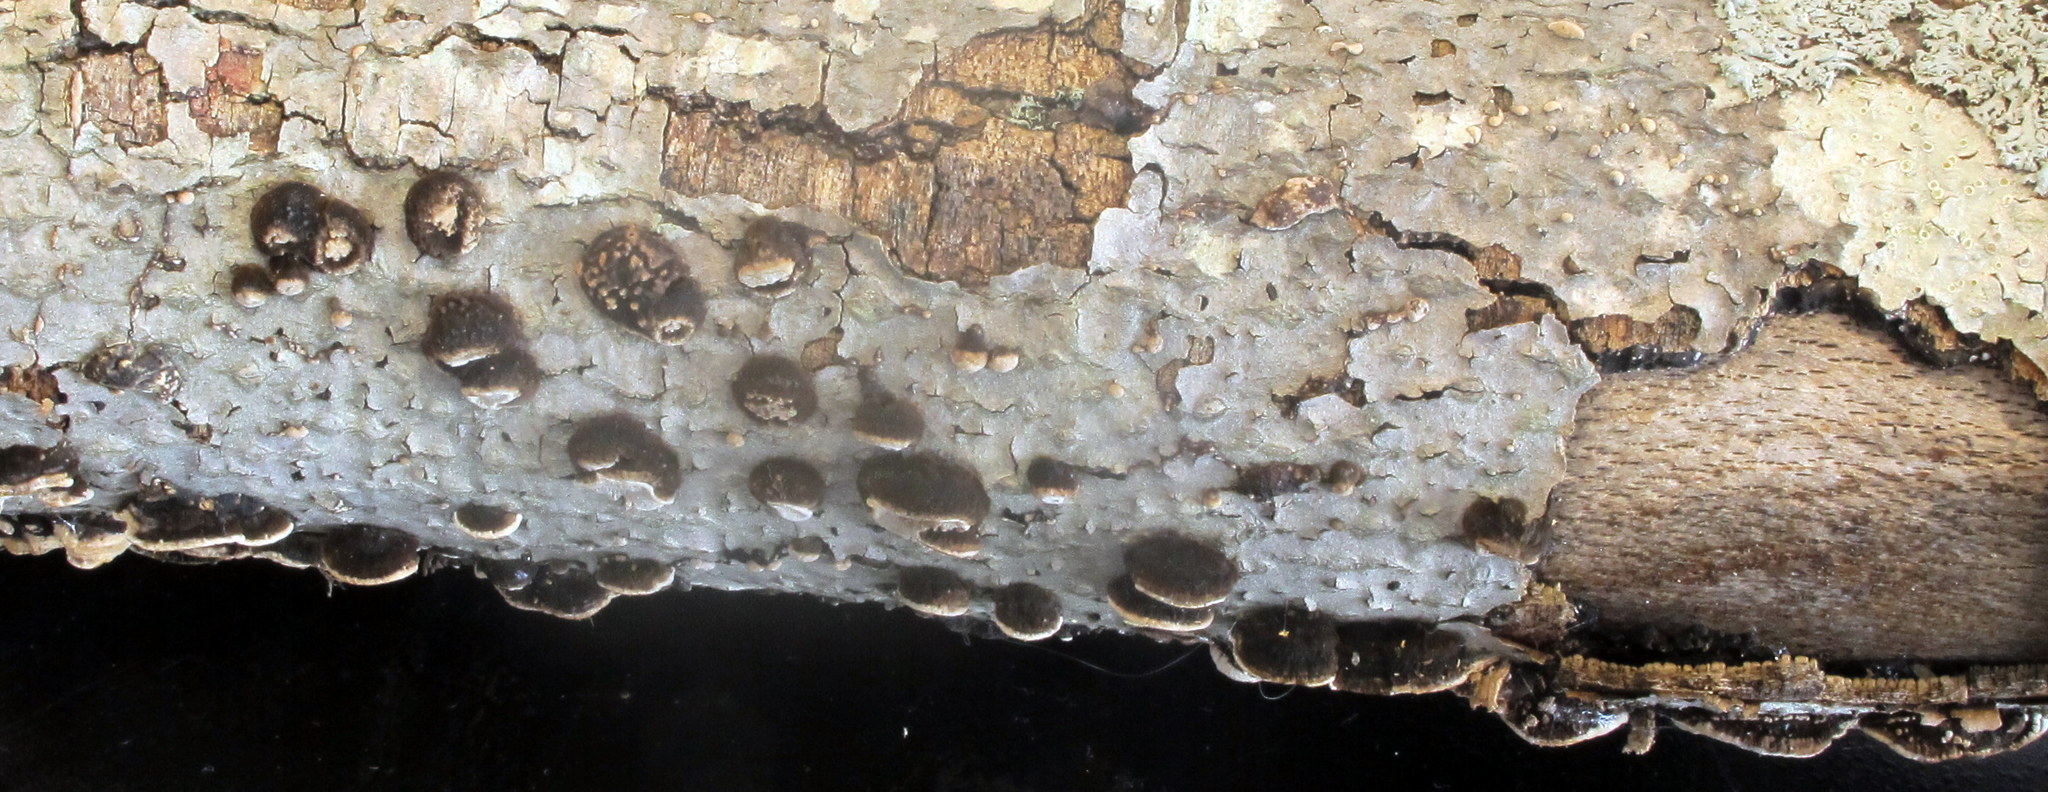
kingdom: Fungi
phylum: Basidiomycota
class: Agaricomycetes
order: Polyporales
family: Polyporaceae
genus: Cerioporus
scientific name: Cerioporus scutellatus
